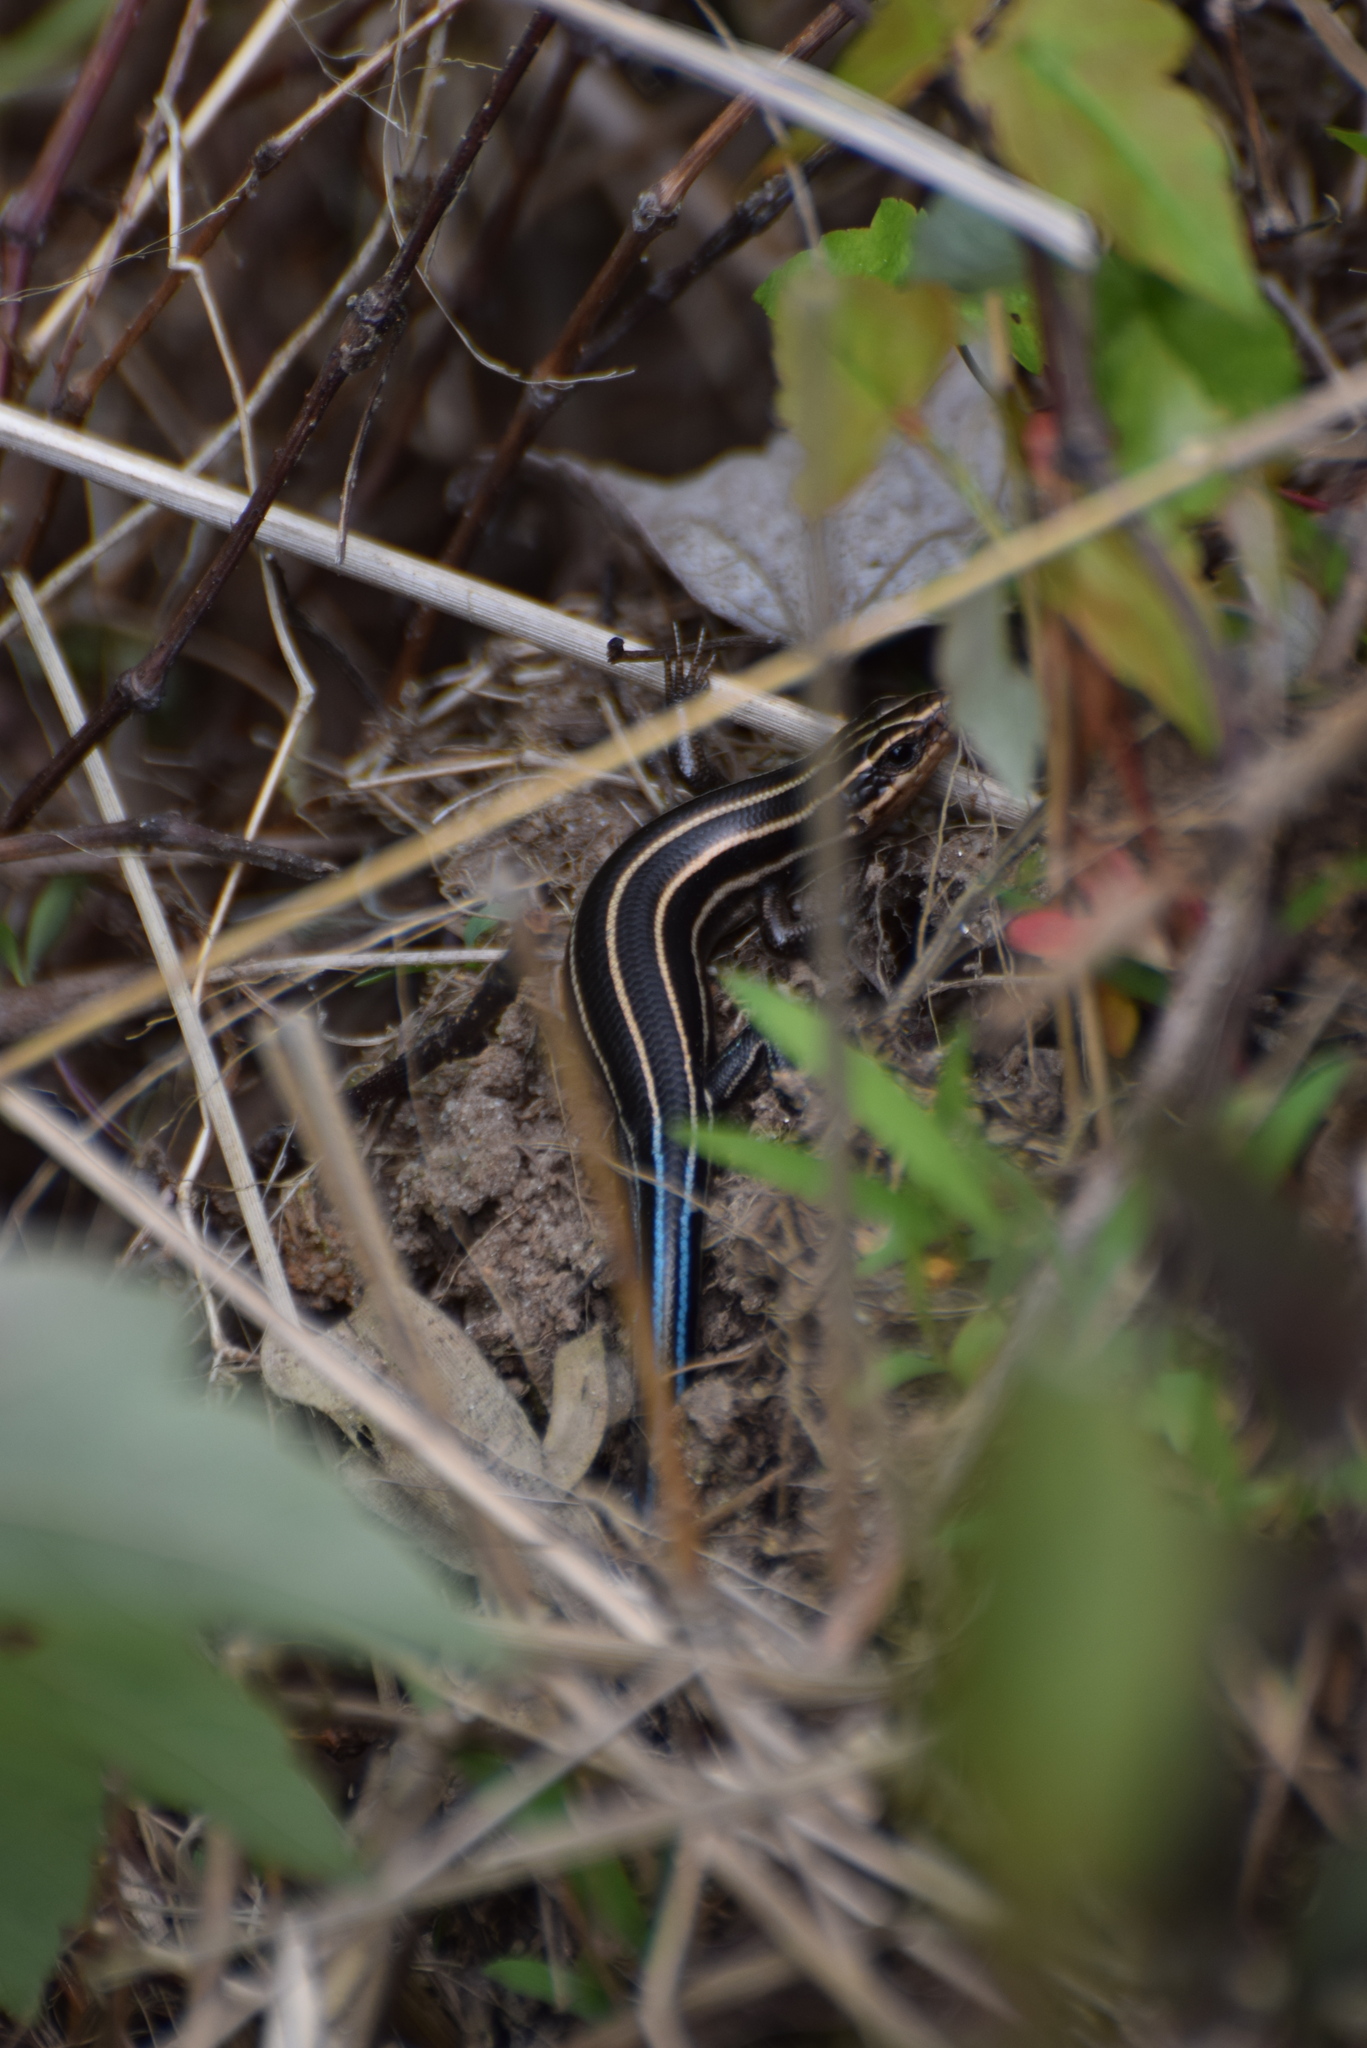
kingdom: Animalia
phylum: Chordata
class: Squamata
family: Scincidae
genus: Plestiodon
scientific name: Plestiodon fasciatus
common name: Five-lined skink
